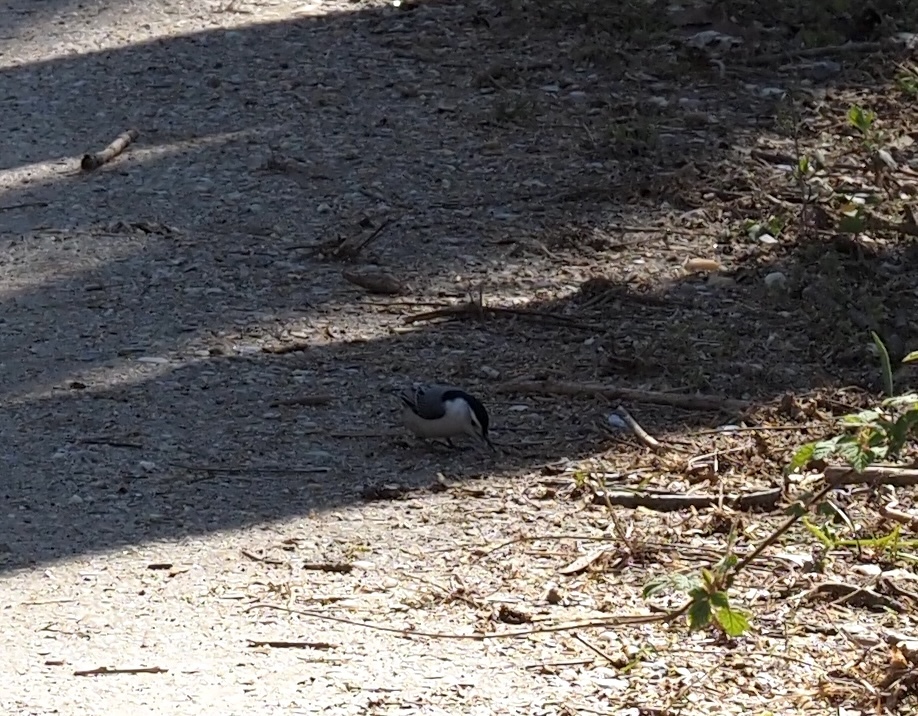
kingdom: Animalia
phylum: Chordata
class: Aves
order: Passeriformes
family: Sittidae
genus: Sitta
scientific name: Sitta carolinensis
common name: White-breasted nuthatch
